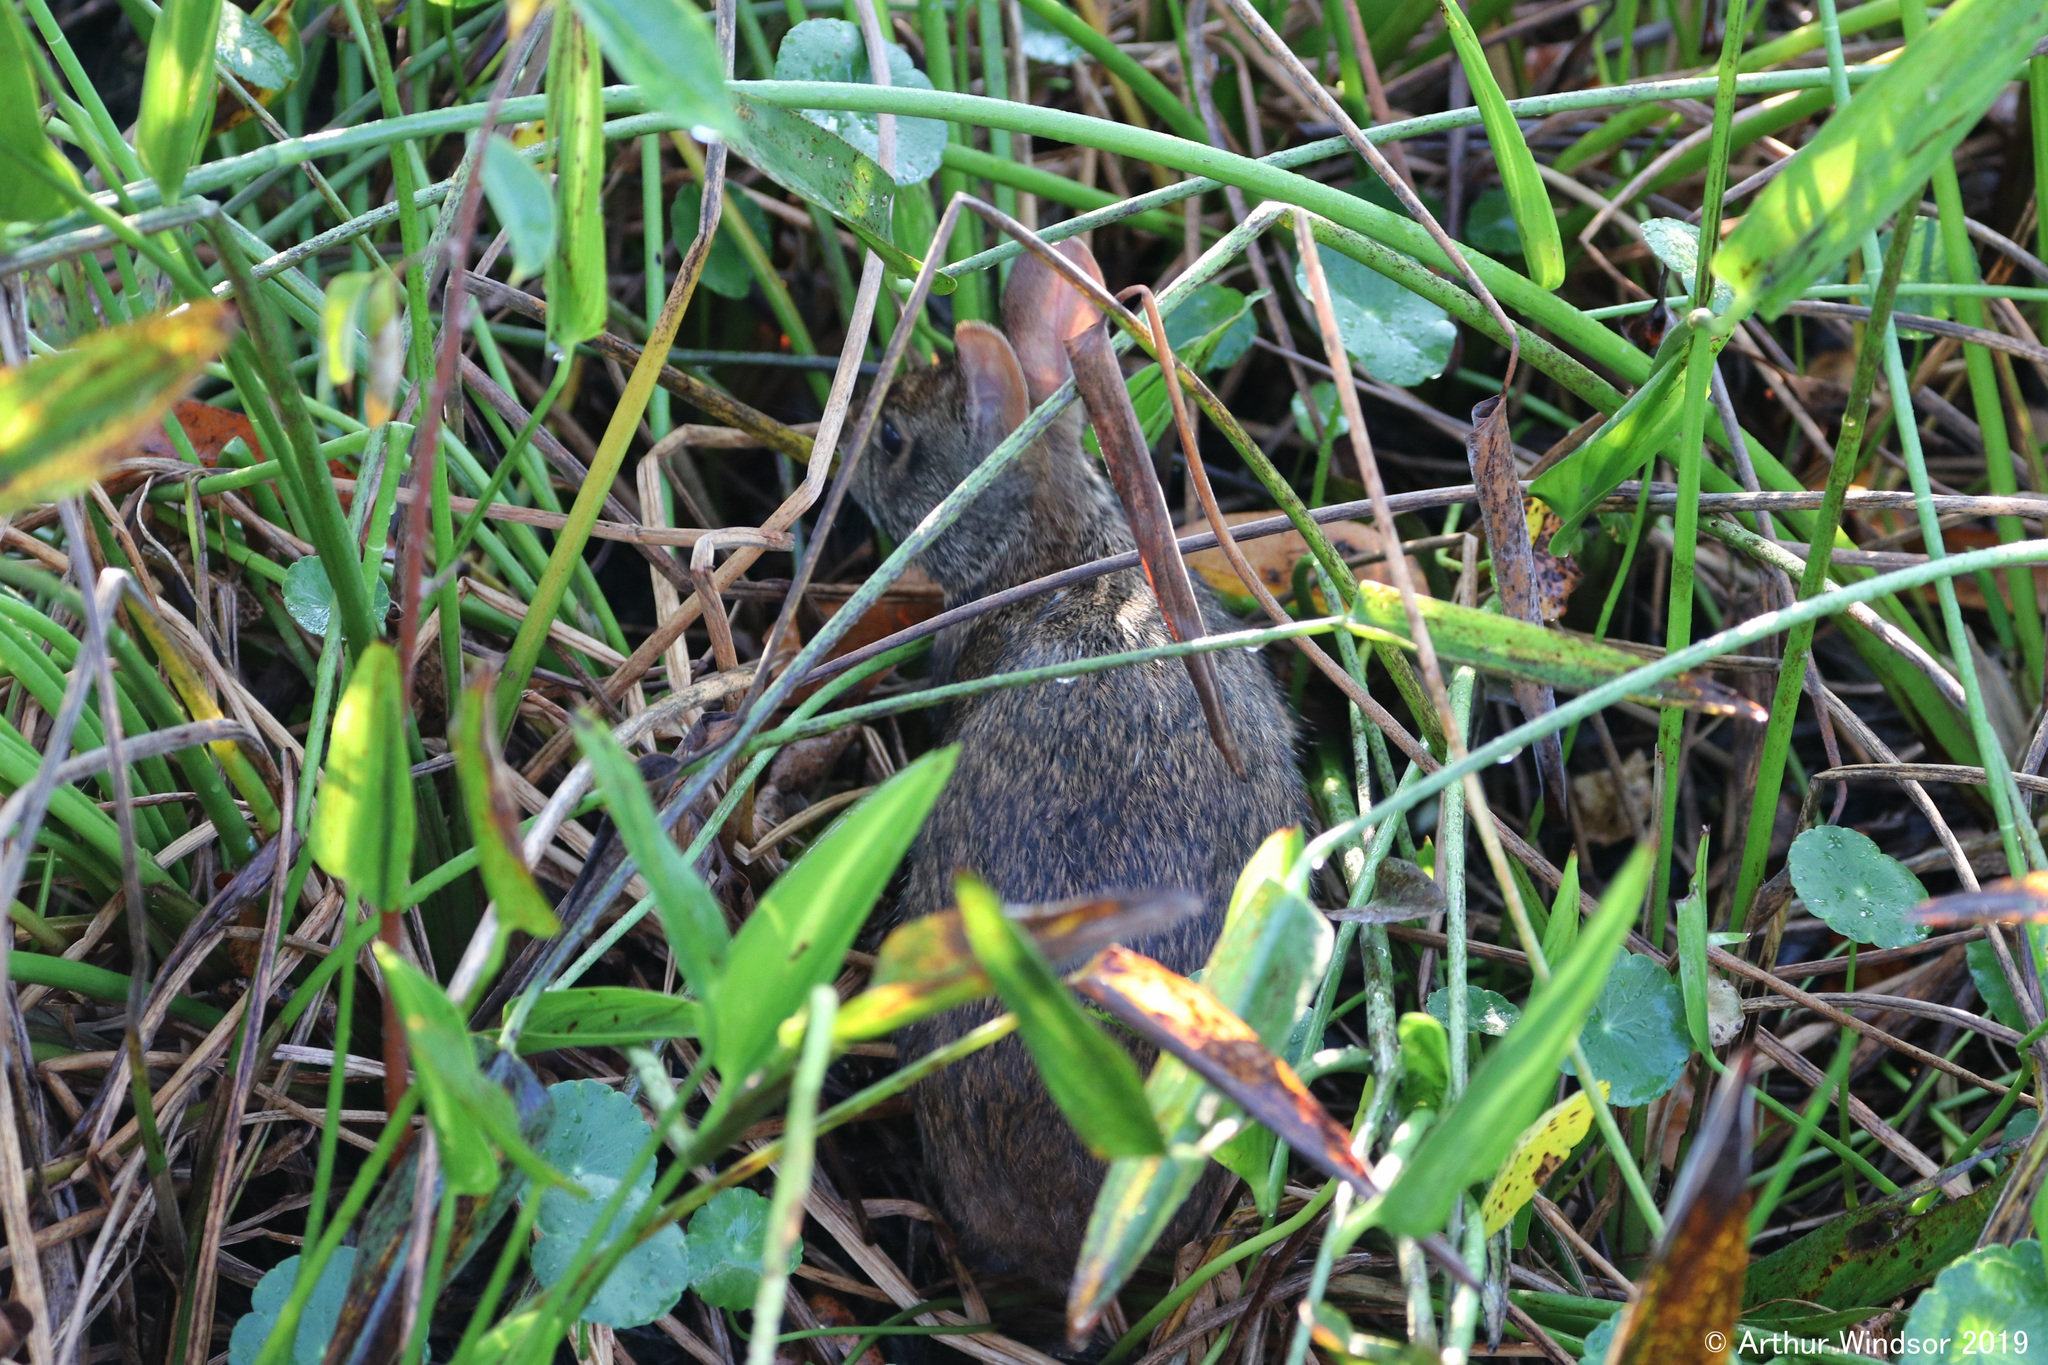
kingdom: Animalia
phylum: Chordata
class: Mammalia
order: Lagomorpha
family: Leporidae
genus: Sylvilagus
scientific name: Sylvilagus palustris
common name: Marsh rabbit
